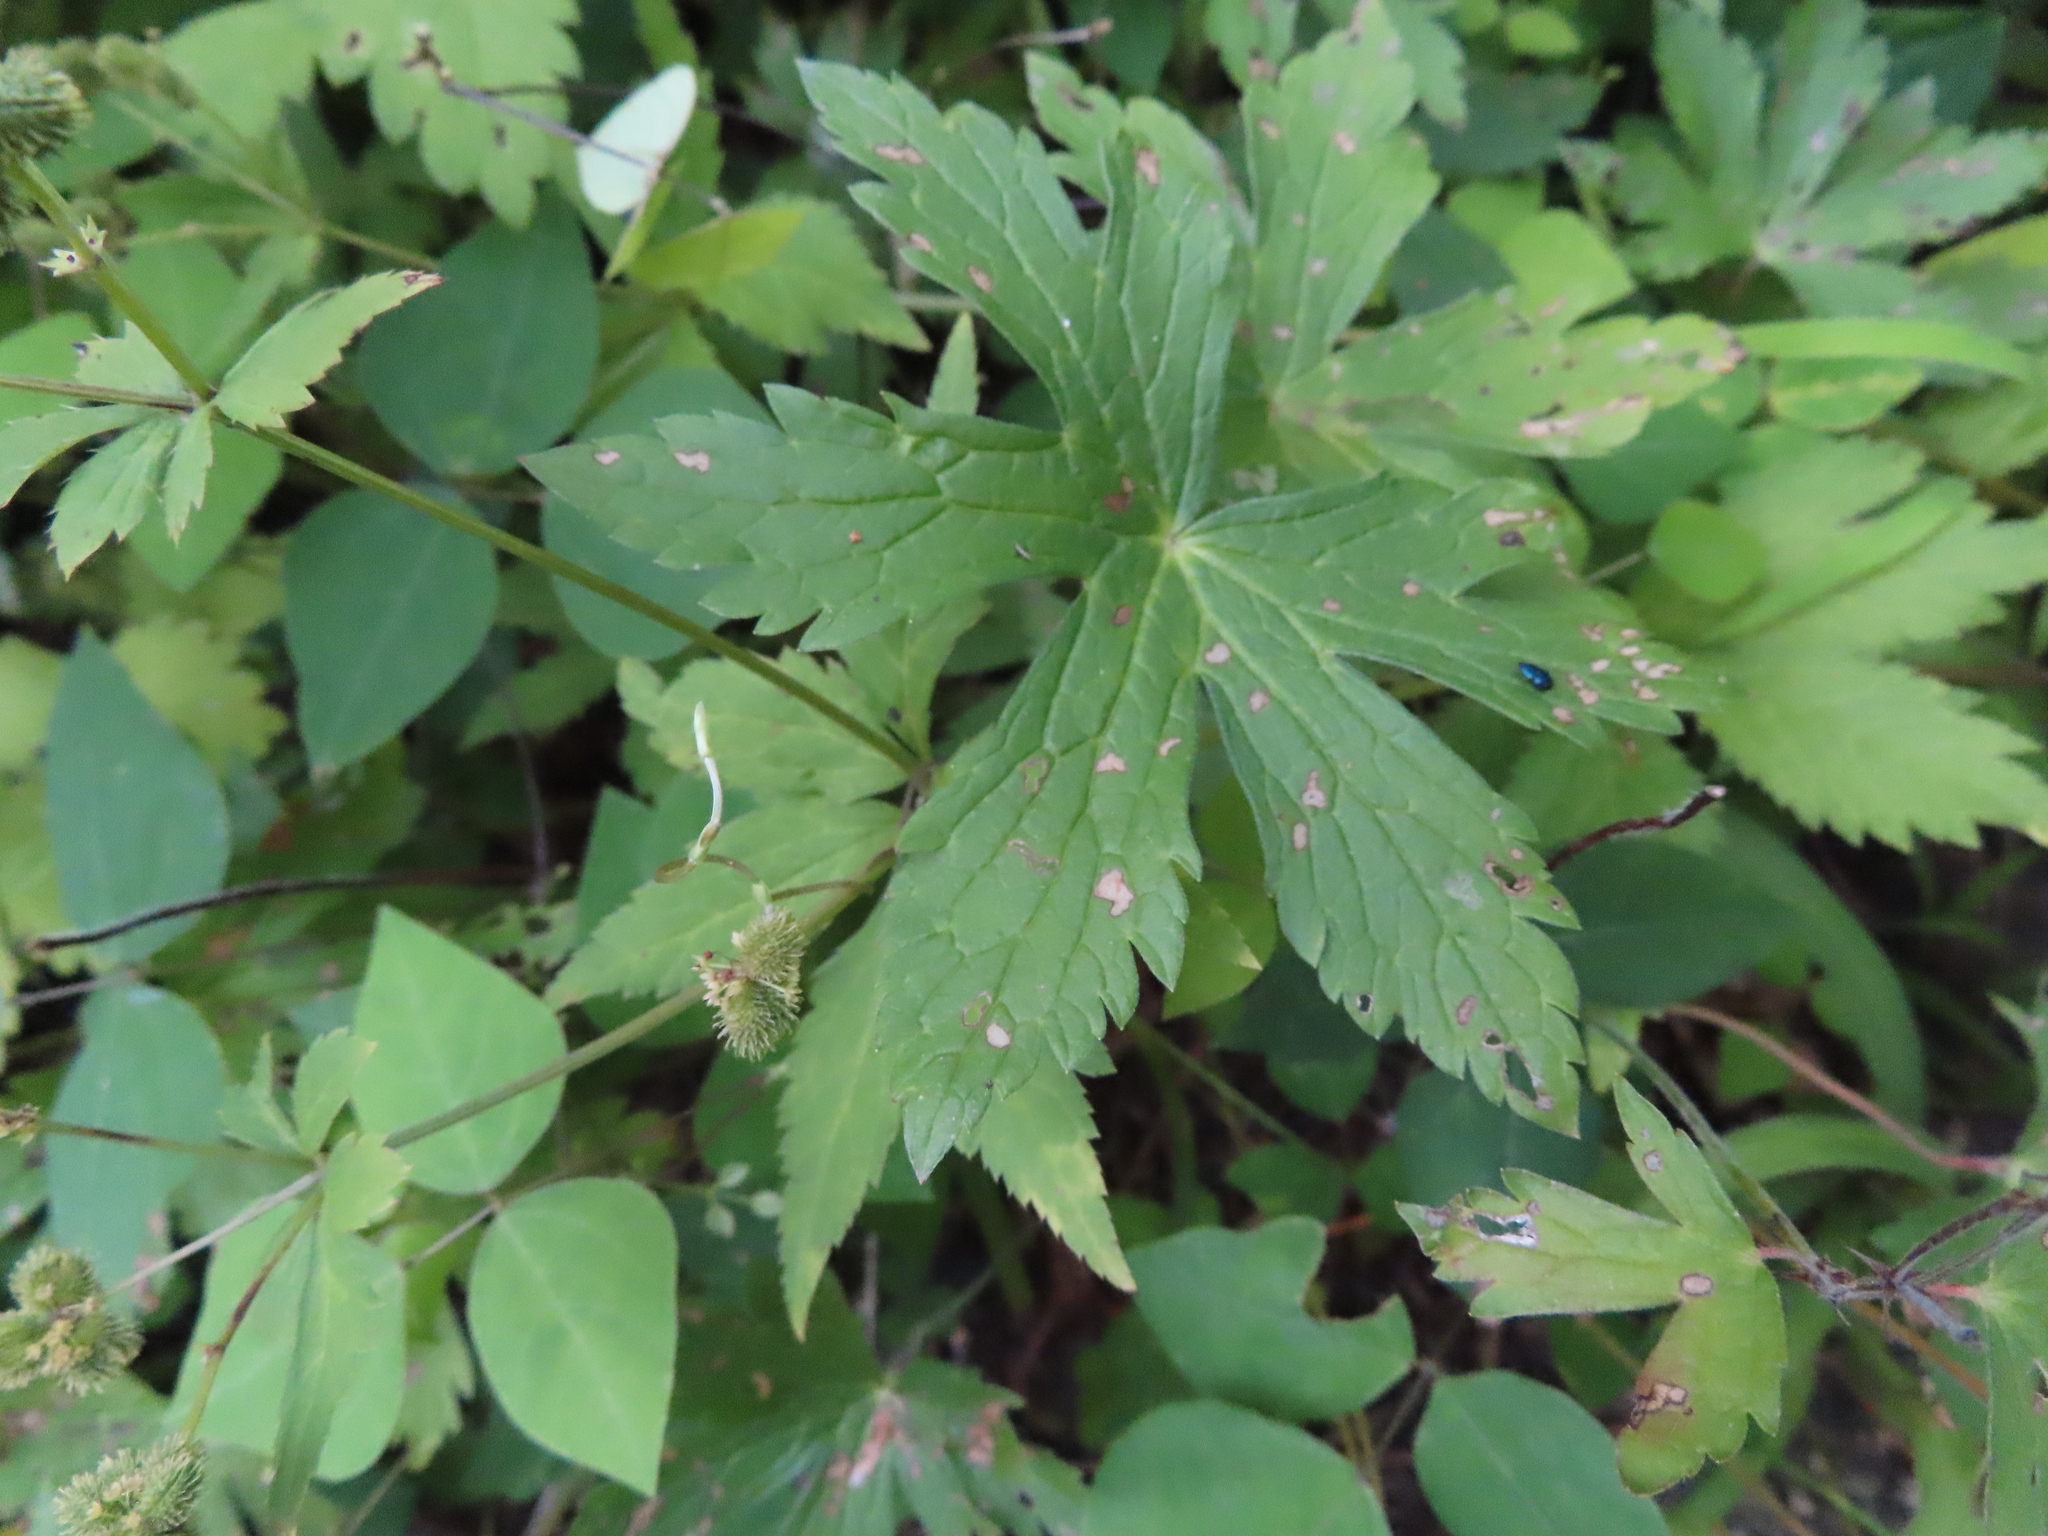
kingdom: Plantae
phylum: Tracheophyta
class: Magnoliopsida
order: Geraniales
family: Geraniaceae
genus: Geranium
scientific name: Geranium maculatum
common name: Spotted geranium
